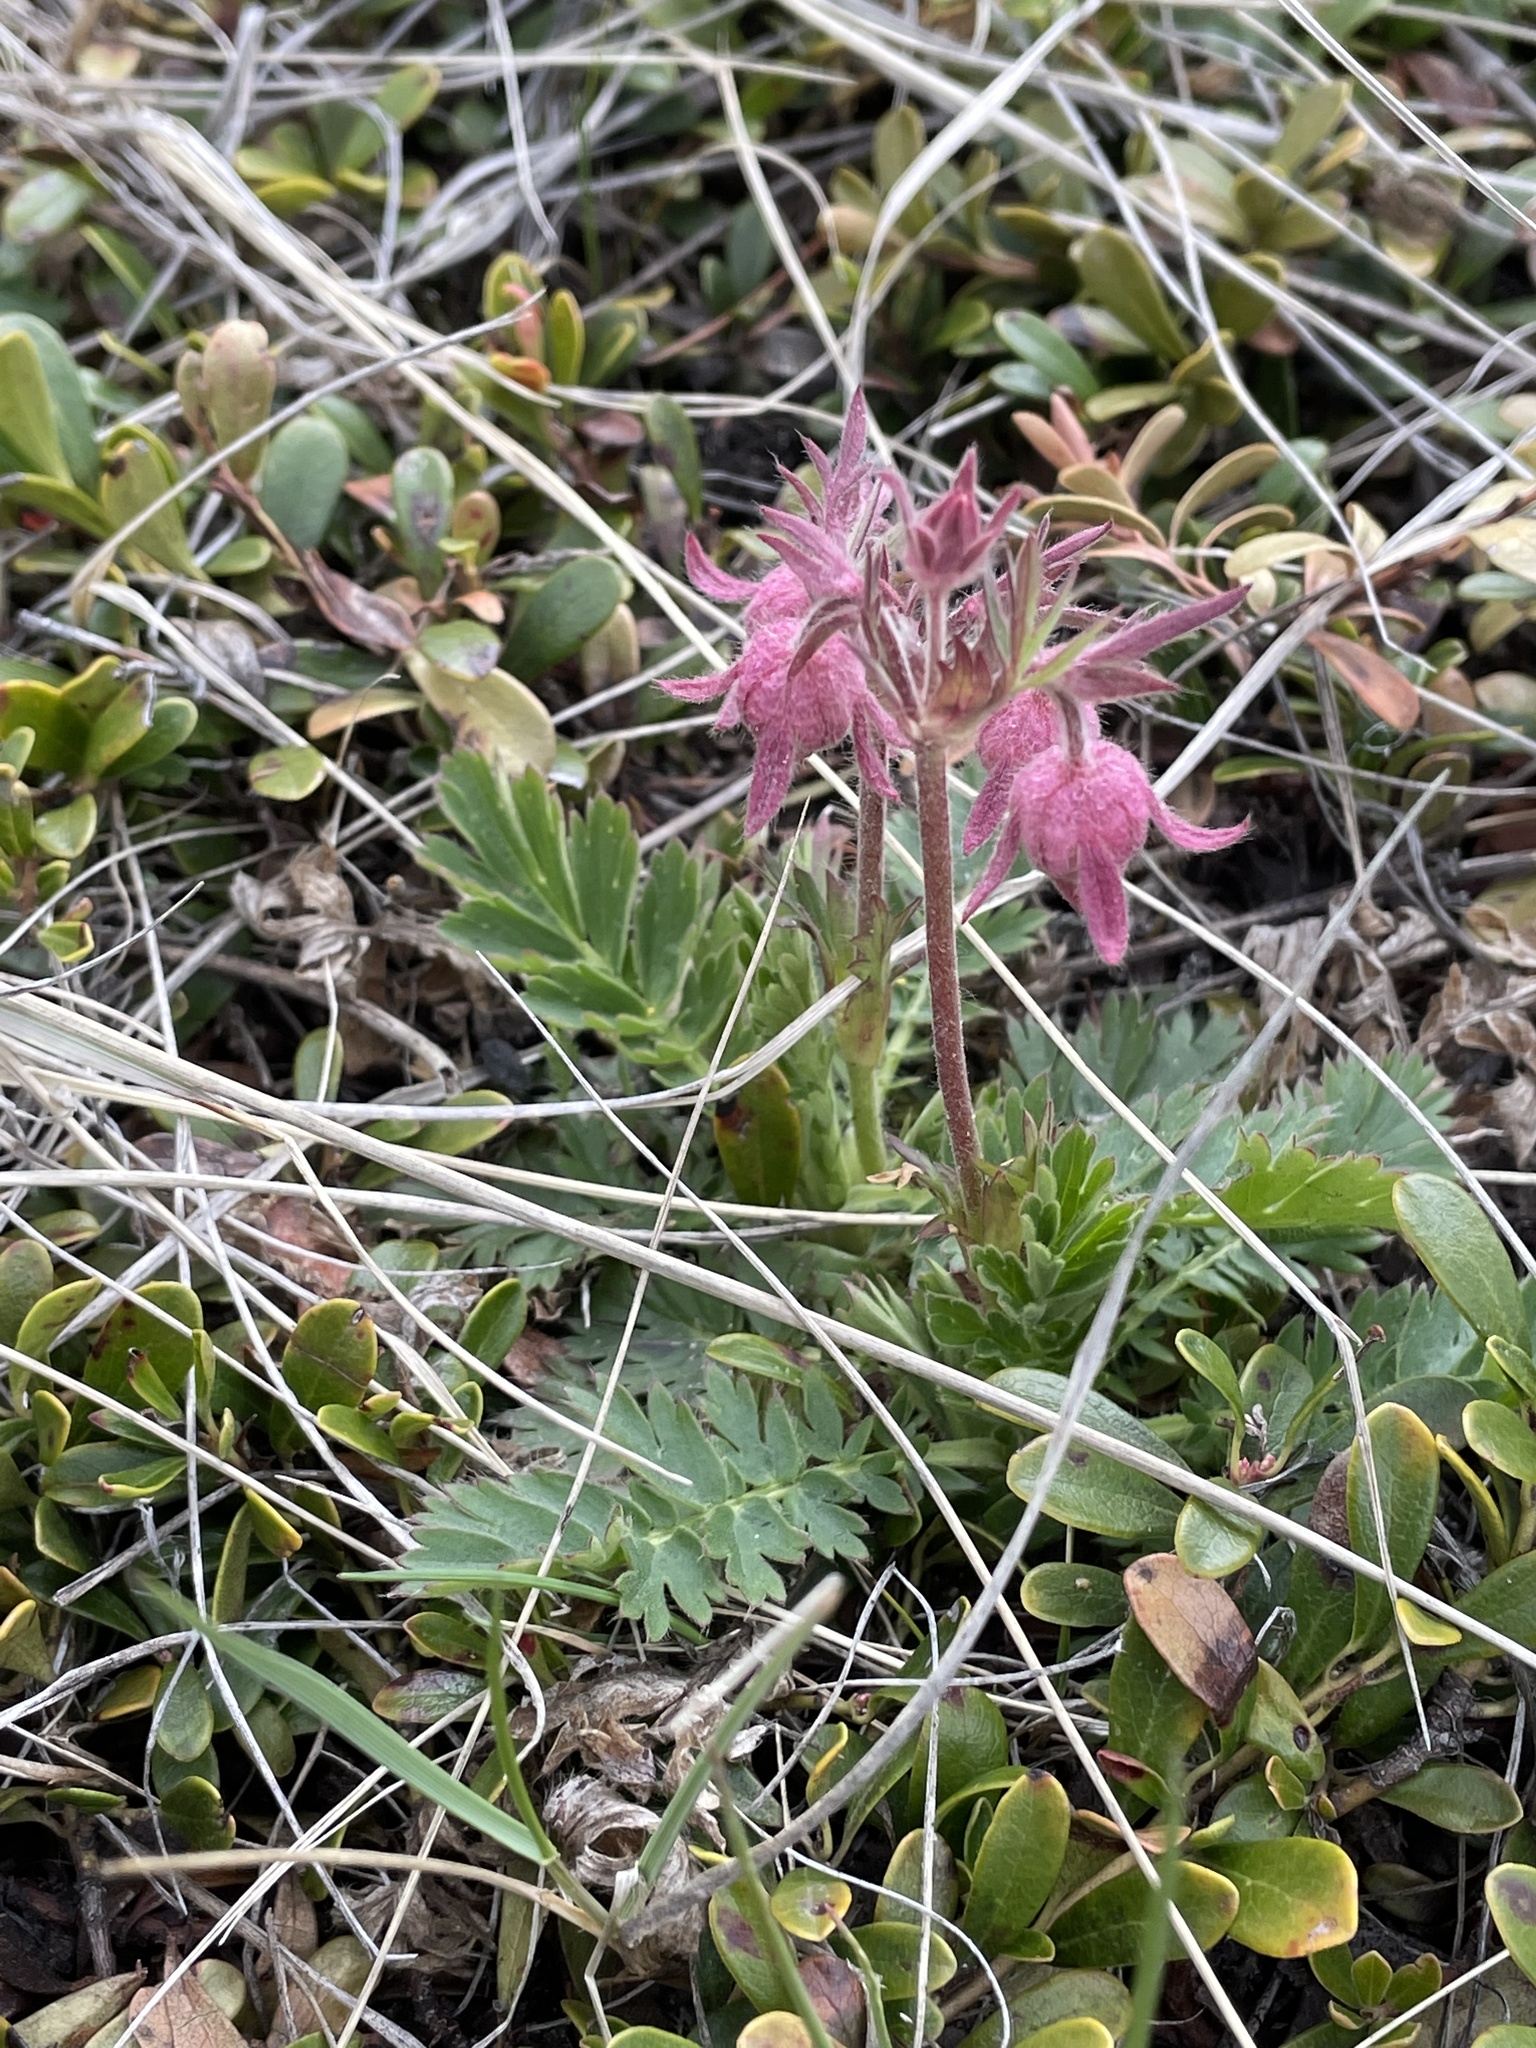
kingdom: Plantae
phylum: Tracheophyta
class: Magnoliopsida
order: Rosales
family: Rosaceae
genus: Geum
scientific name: Geum triflorum
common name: Old man's whiskers
